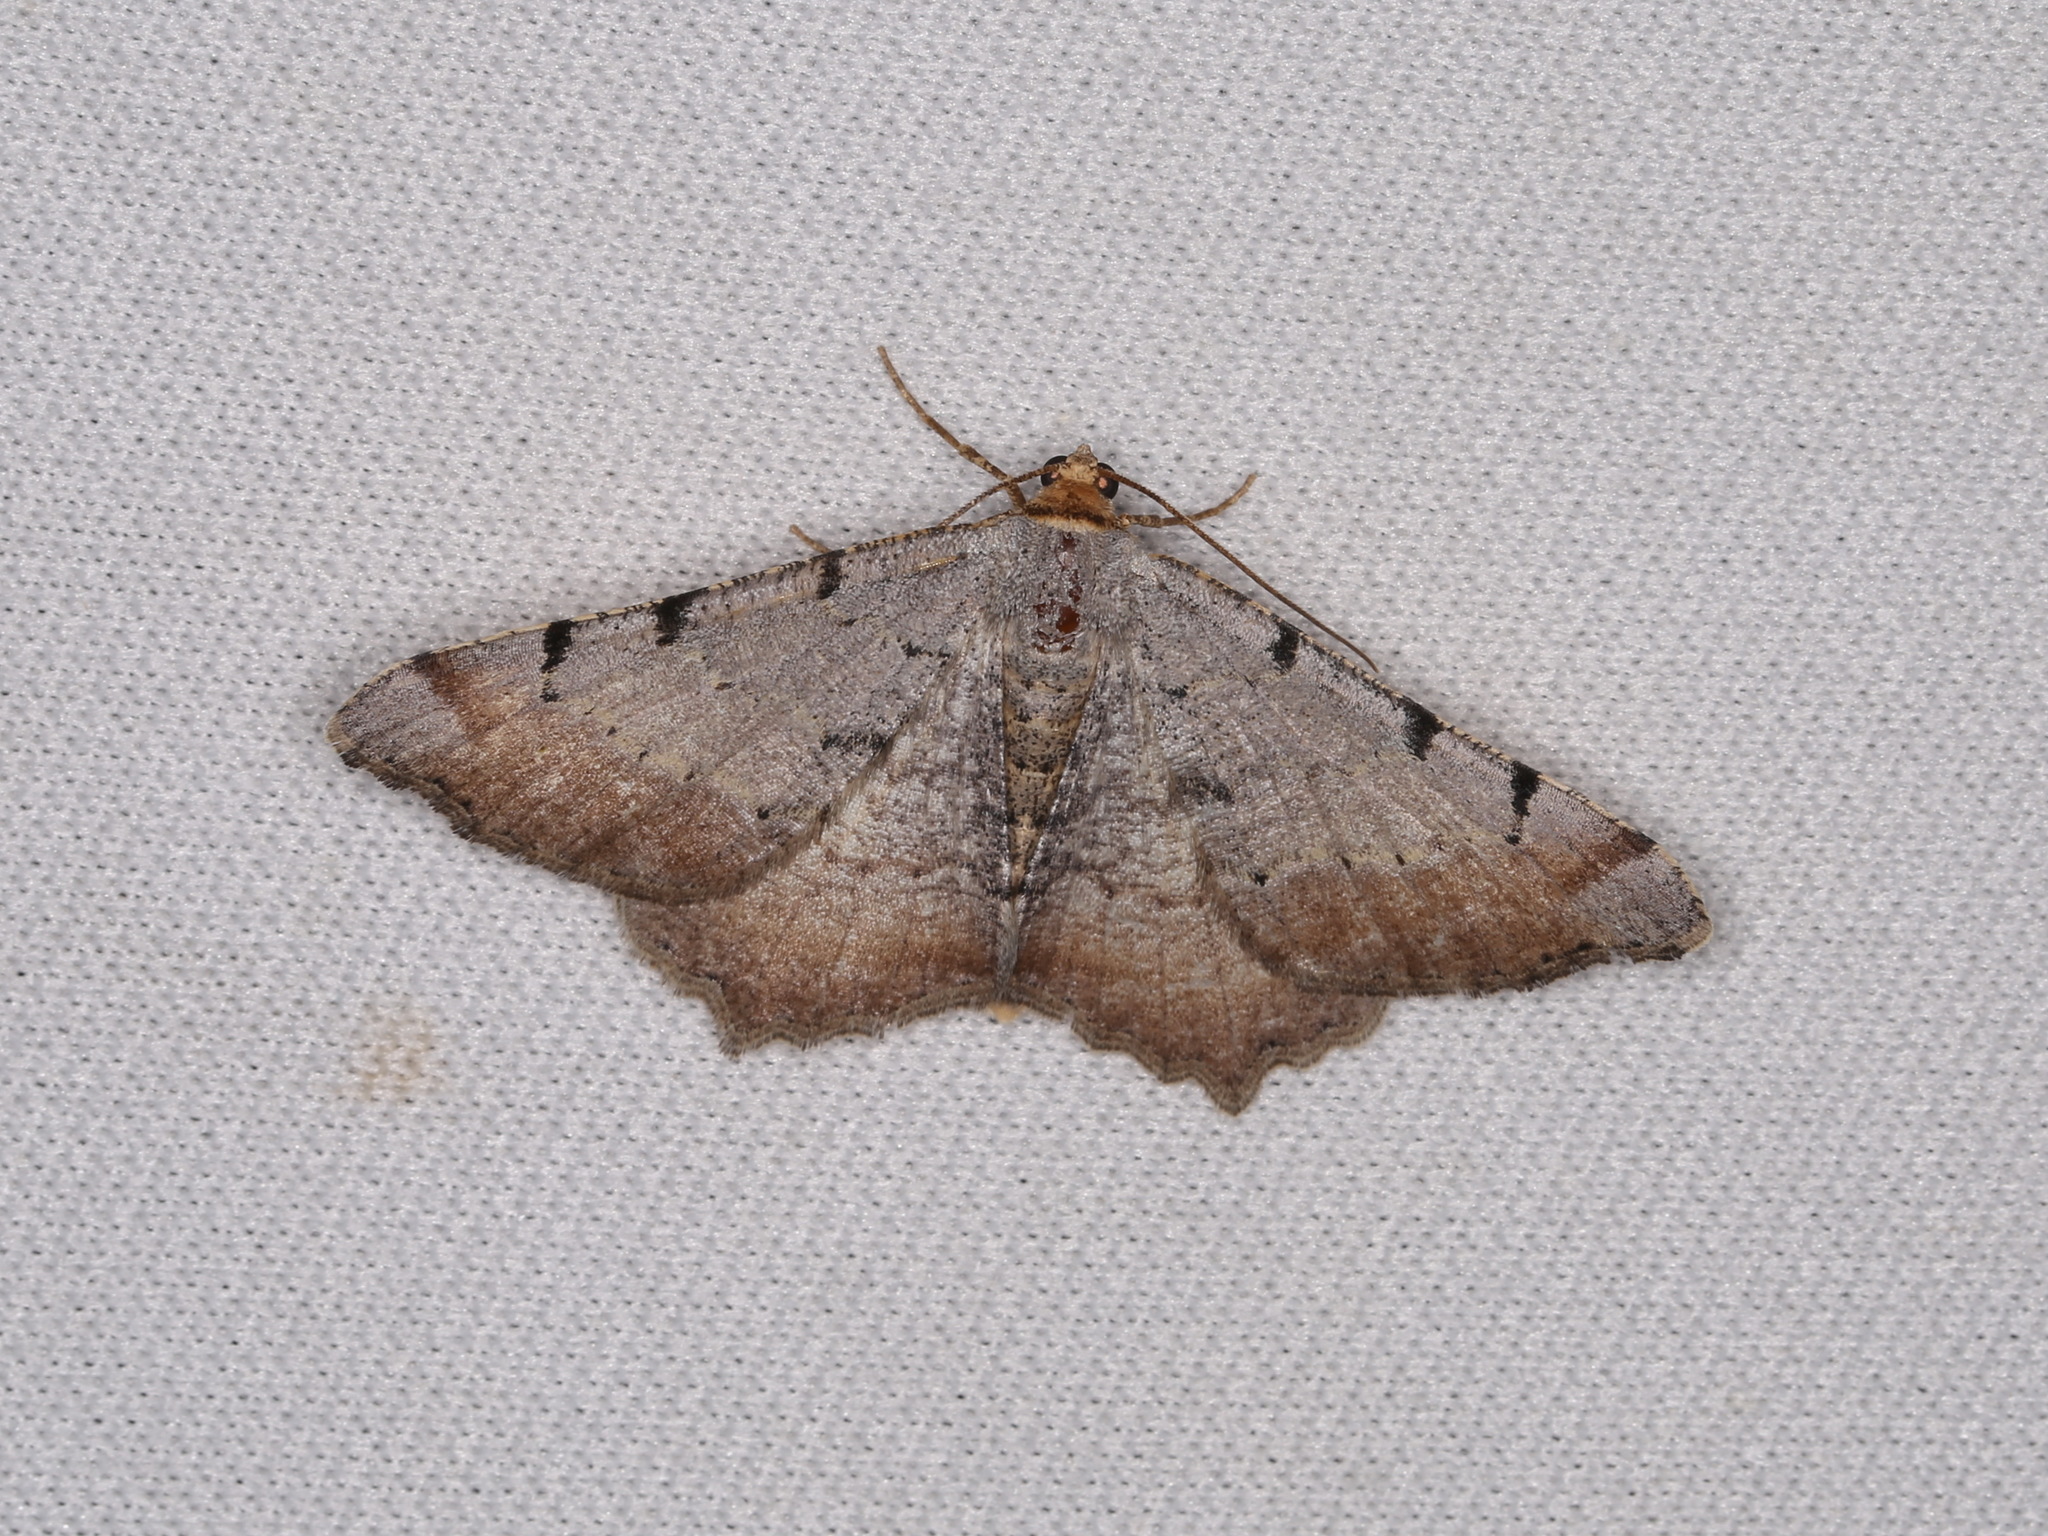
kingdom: Animalia
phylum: Arthropoda
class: Insecta
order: Lepidoptera
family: Geometridae
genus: Macaria
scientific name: Macaria adonis
